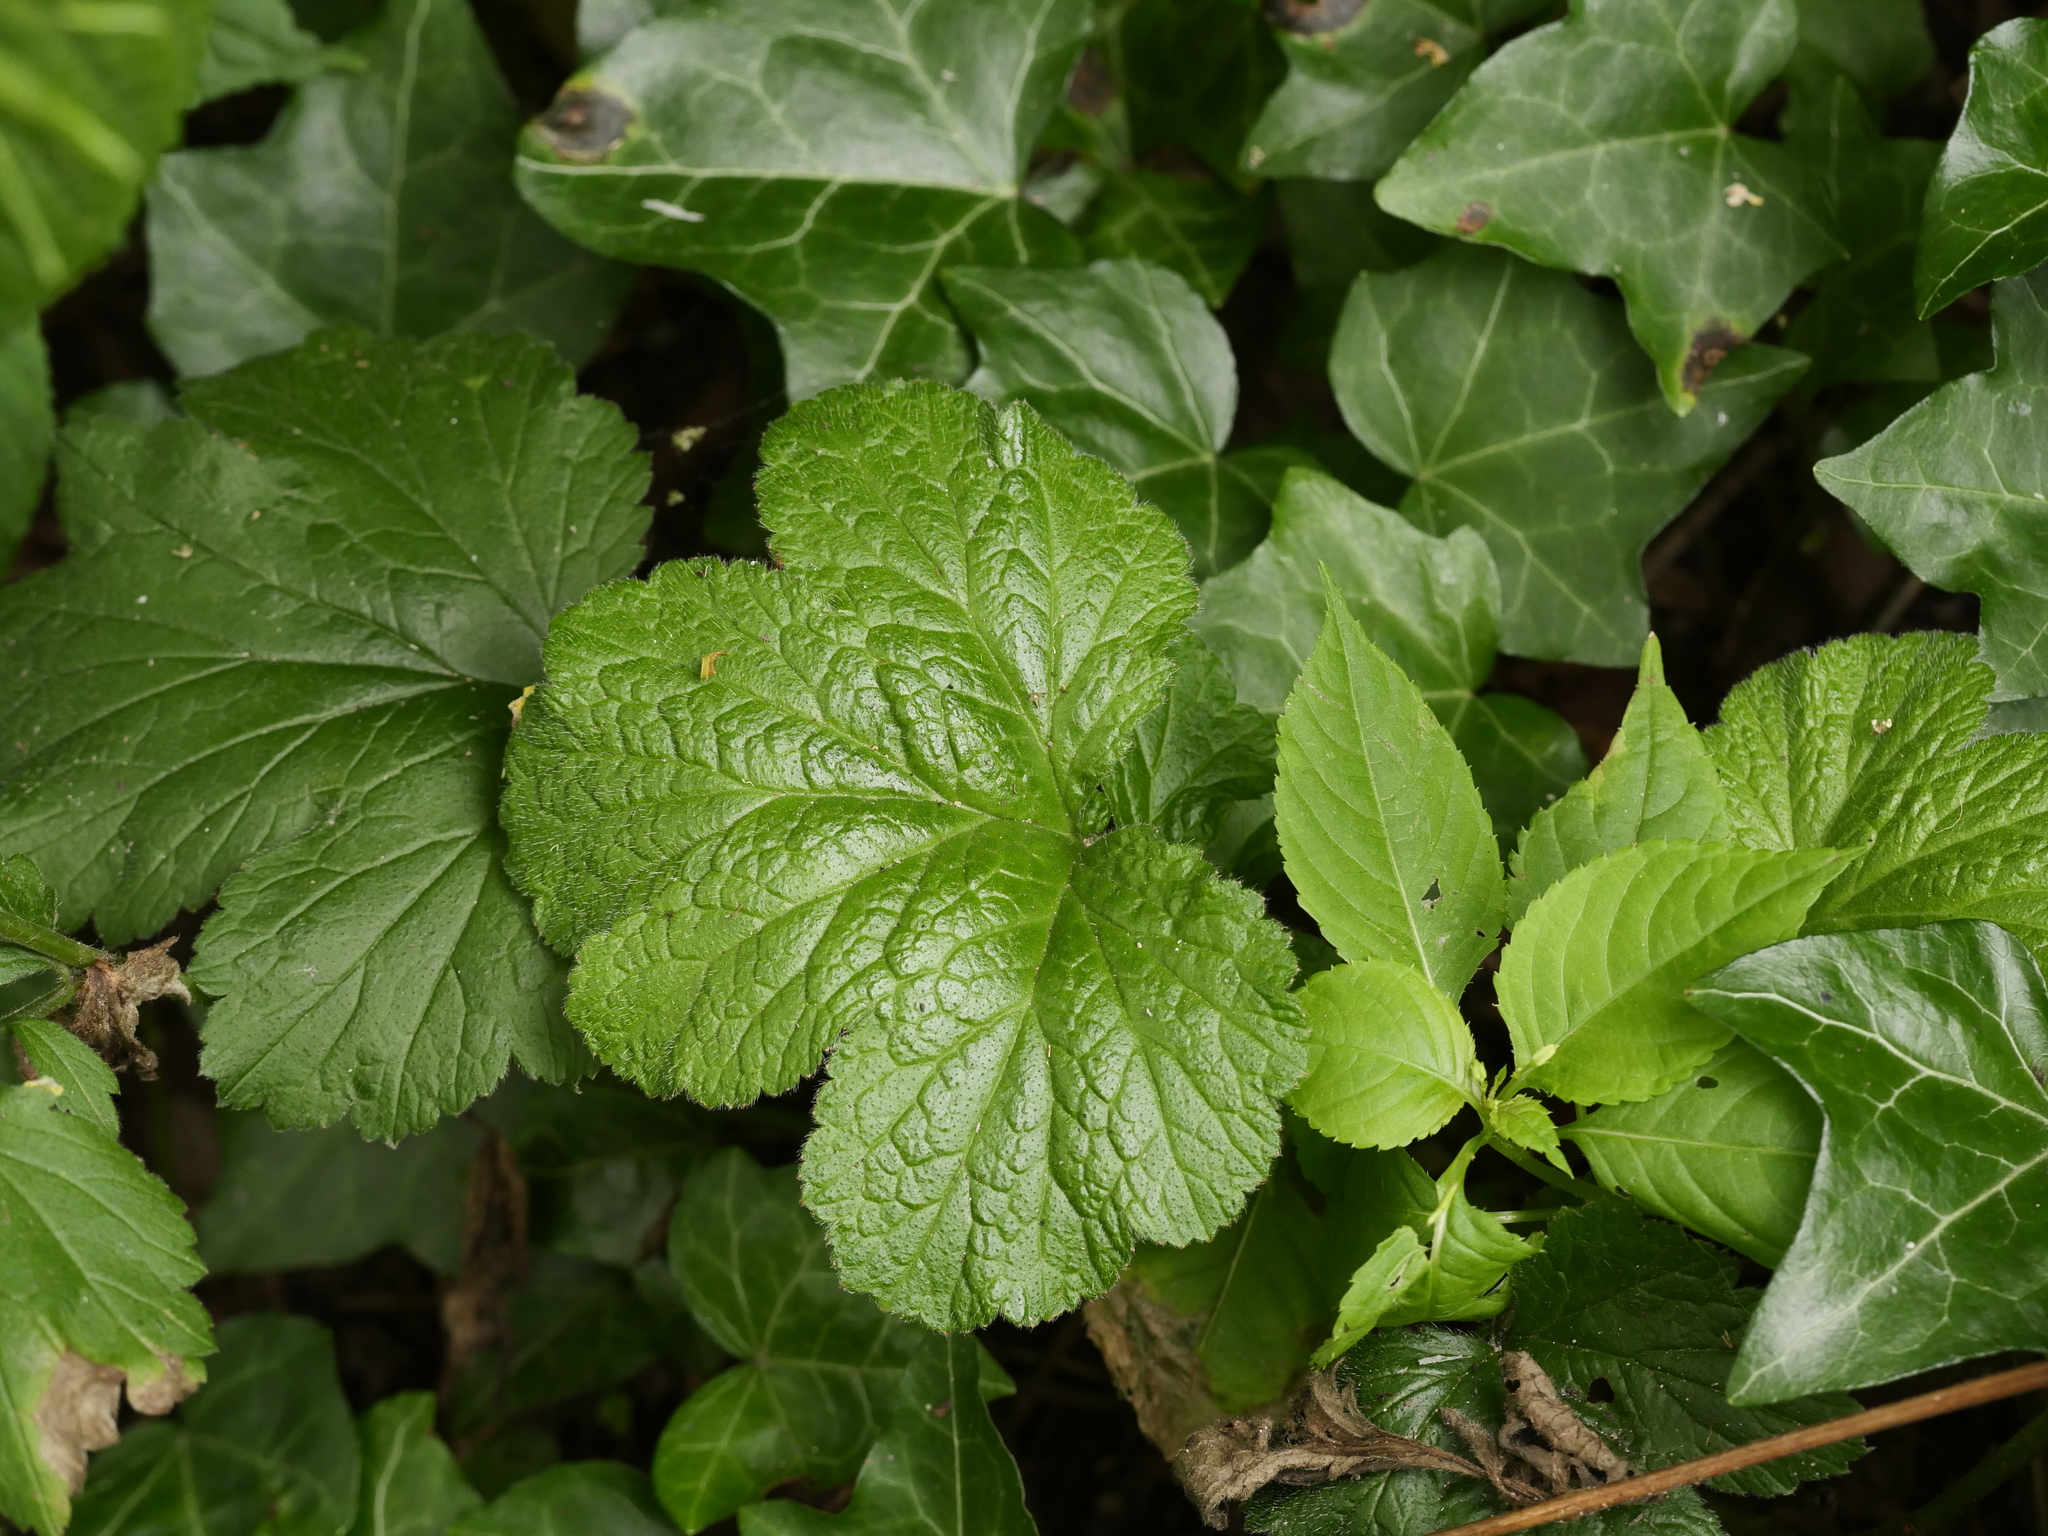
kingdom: Plantae
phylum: Tracheophyta
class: Magnoliopsida
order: Rosales
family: Rosaceae
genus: Geum
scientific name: Geum urbanum
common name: Wood avens
